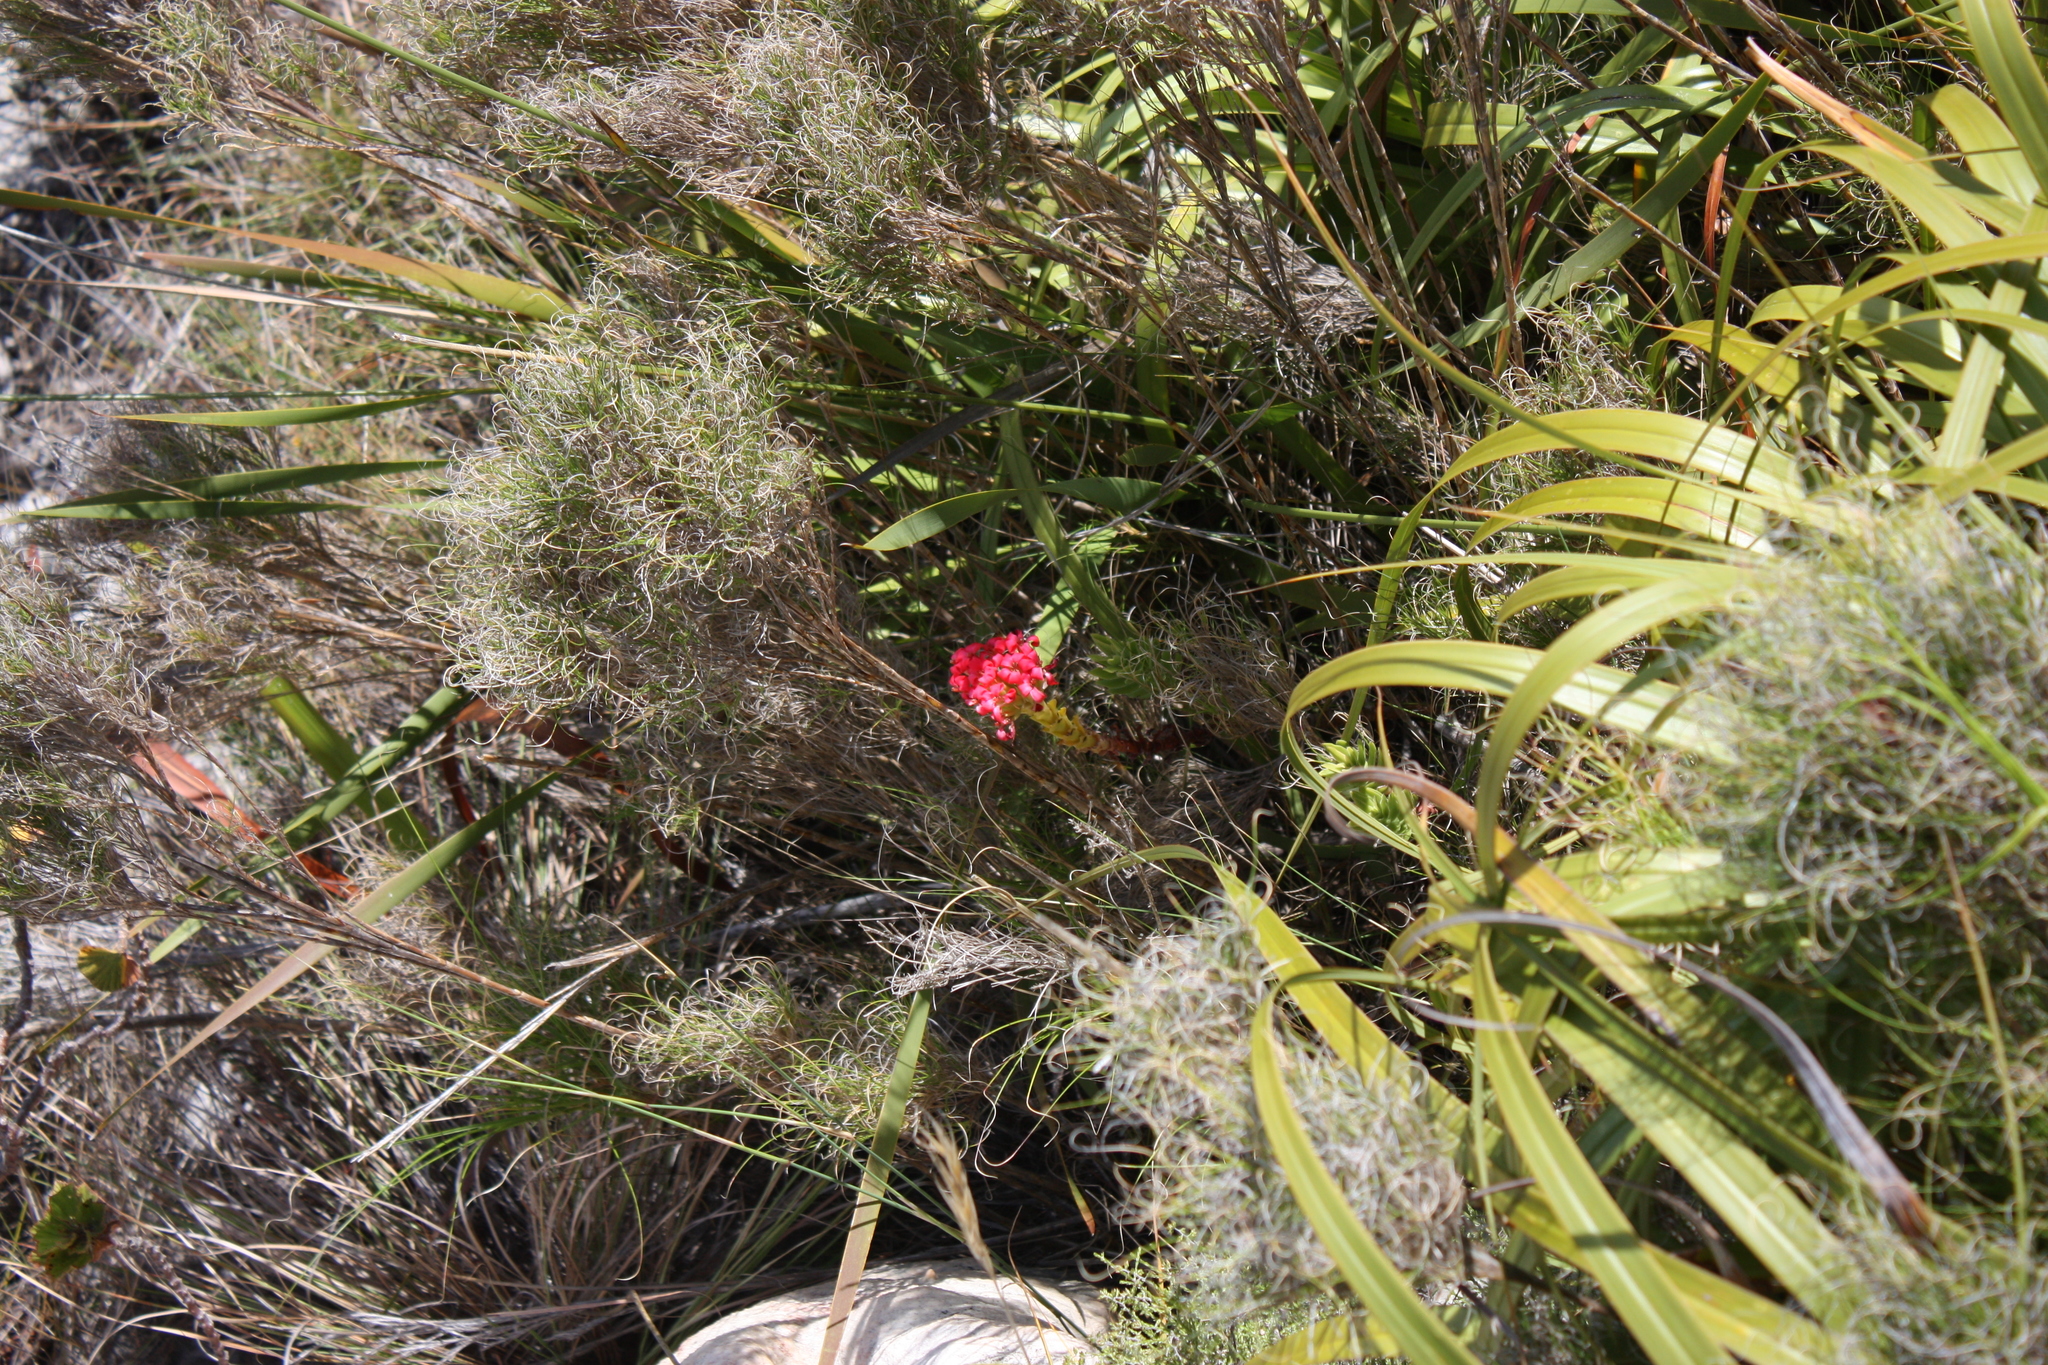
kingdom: Plantae
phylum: Tracheophyta
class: Magnoliopsida
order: Saxifragales
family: Crassulaceae
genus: Crassula
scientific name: Crassula coccinea
